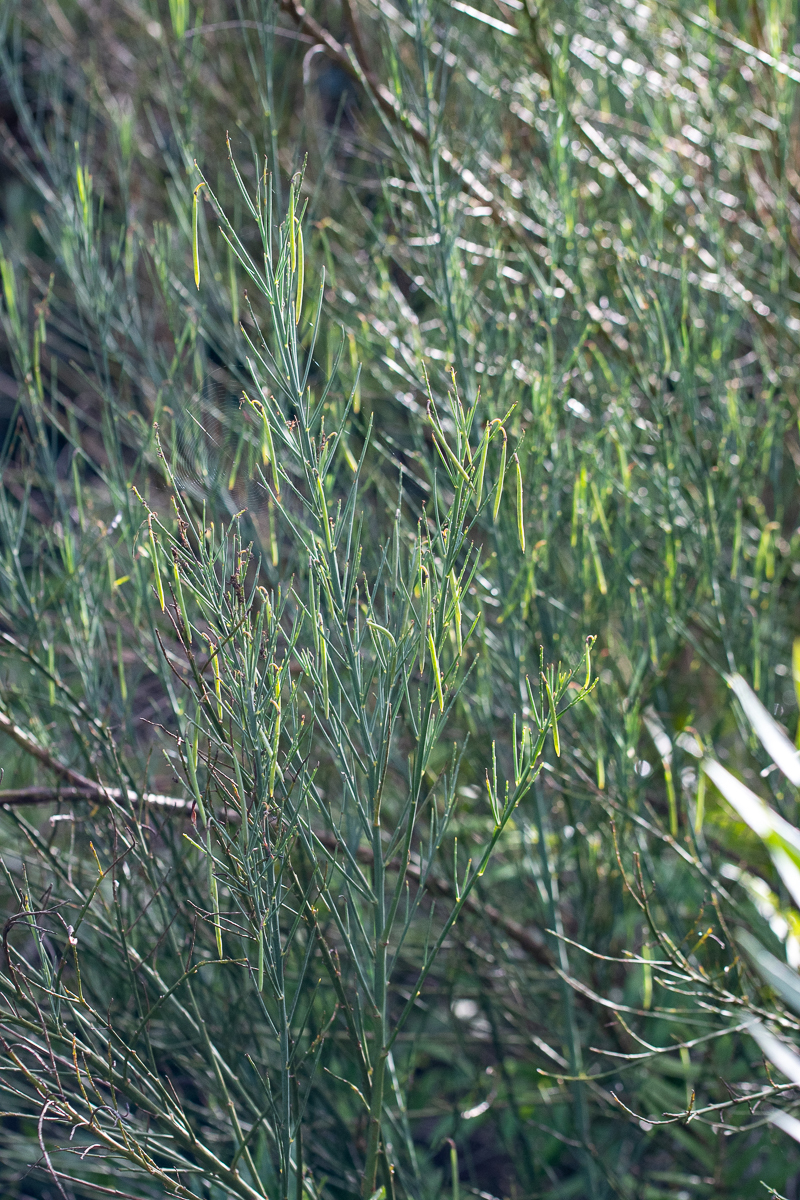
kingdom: Plantae
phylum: Tracheophyta
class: Magnoliopsida
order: Fabales
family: Fabaceae
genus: Indigofera
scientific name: Indigofera filifolia
